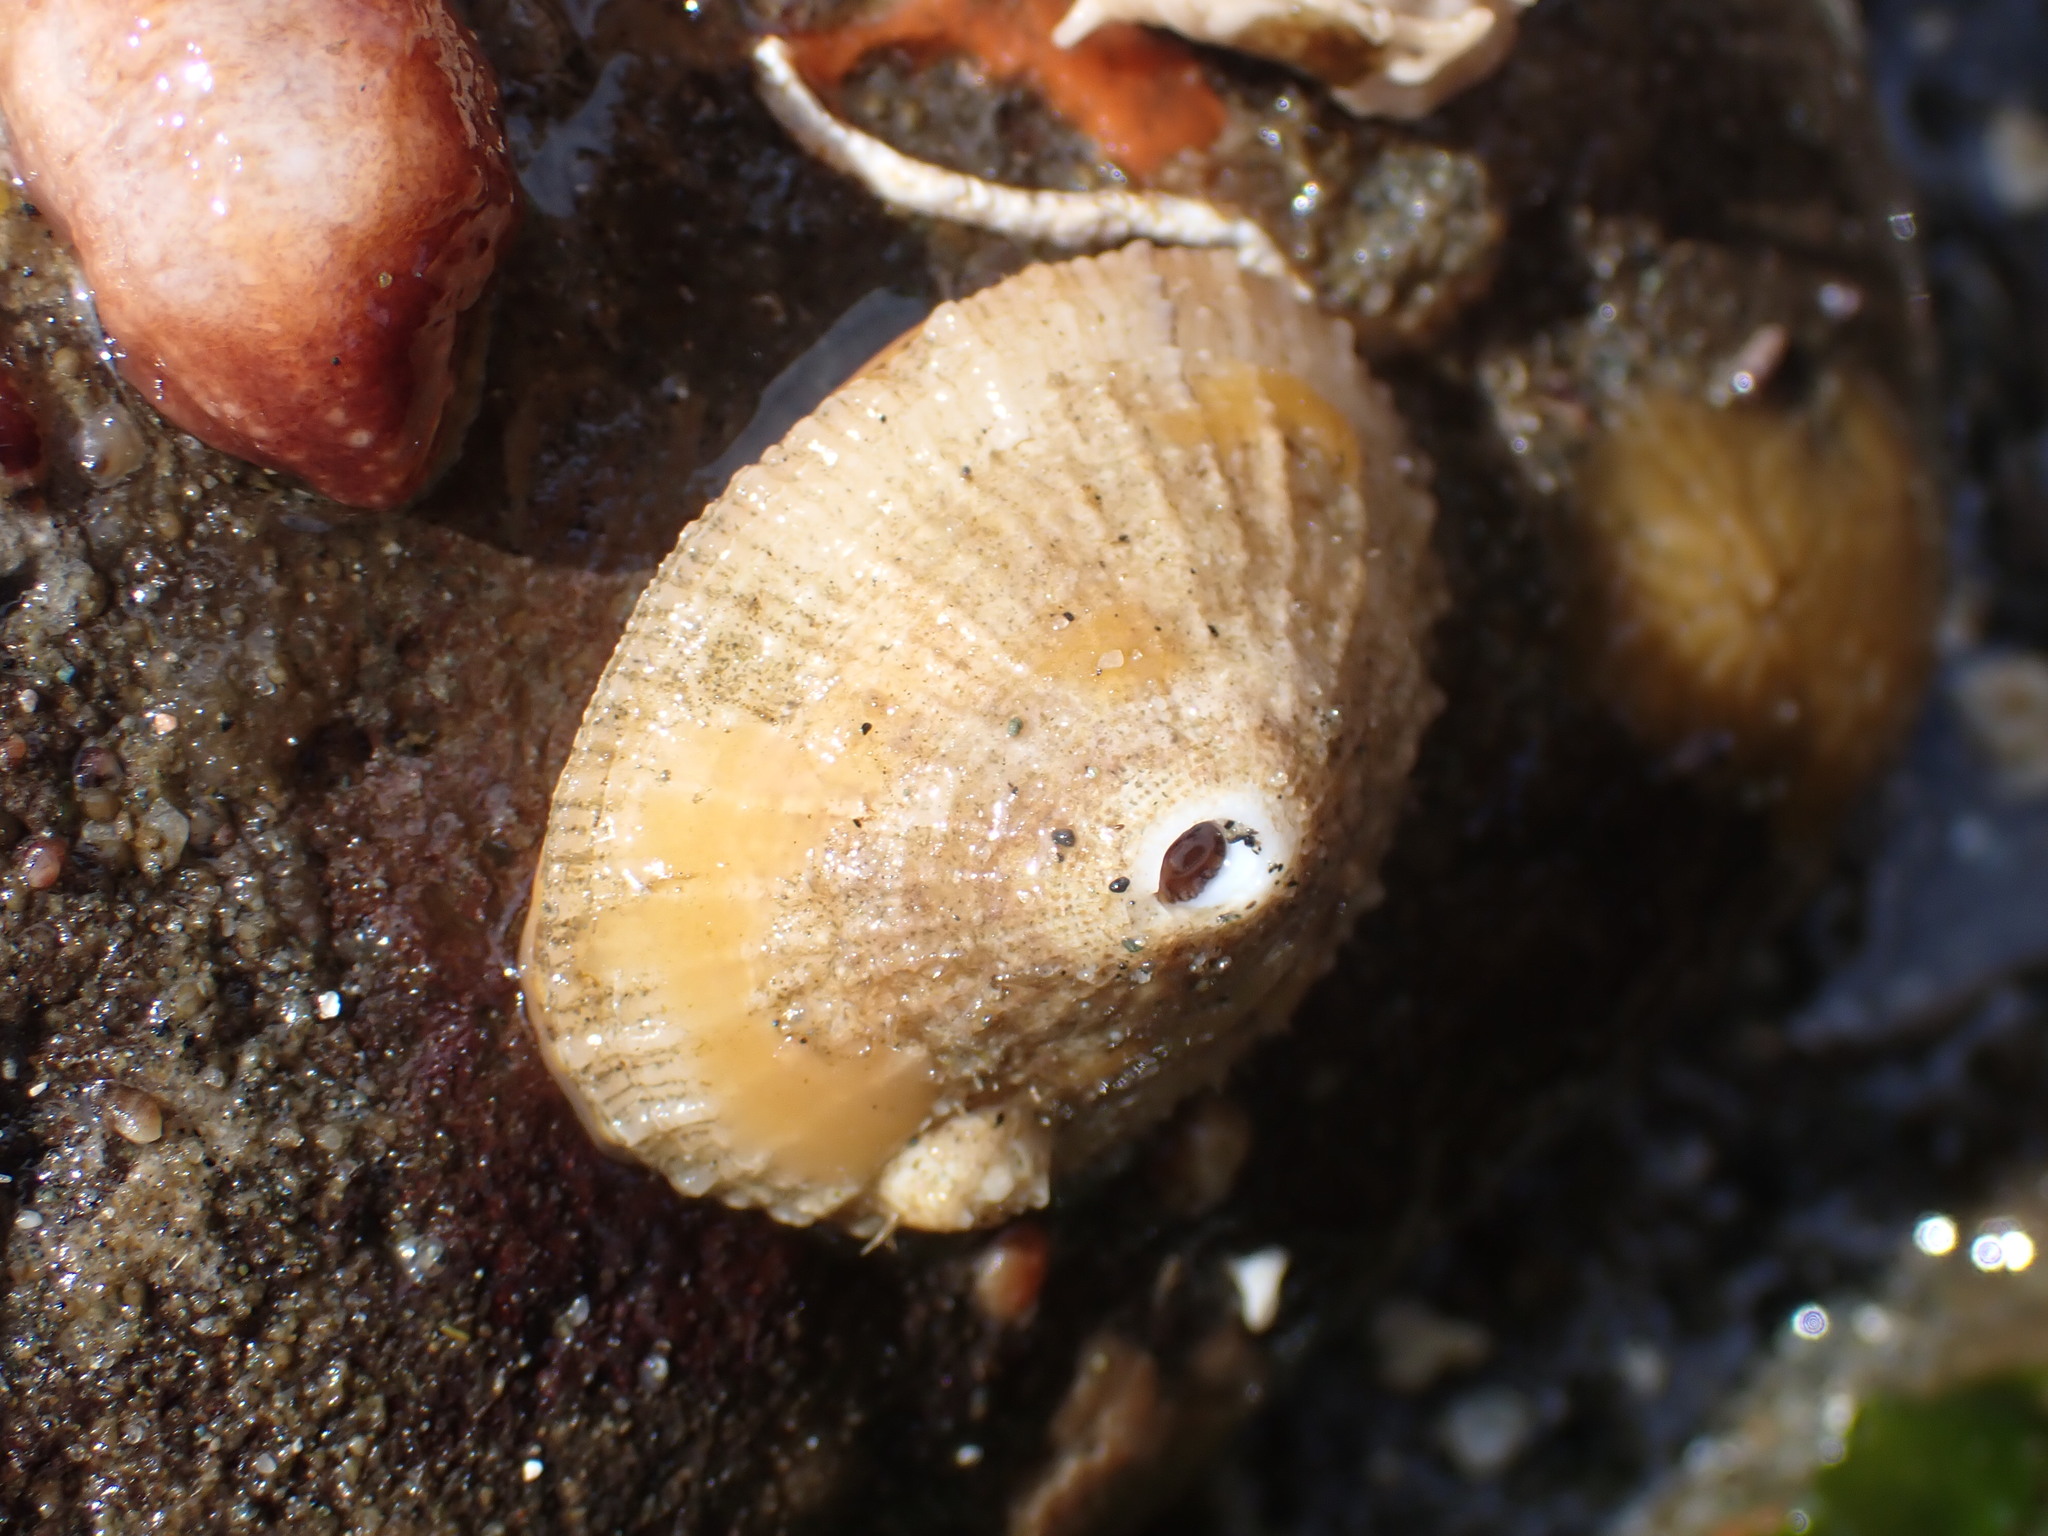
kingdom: Animalia
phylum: Mollusca
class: Gastropoda
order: Lepetellida
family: Fissurellidae
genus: Diodora
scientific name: Diodora aspera
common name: Rough keyhole limpet
